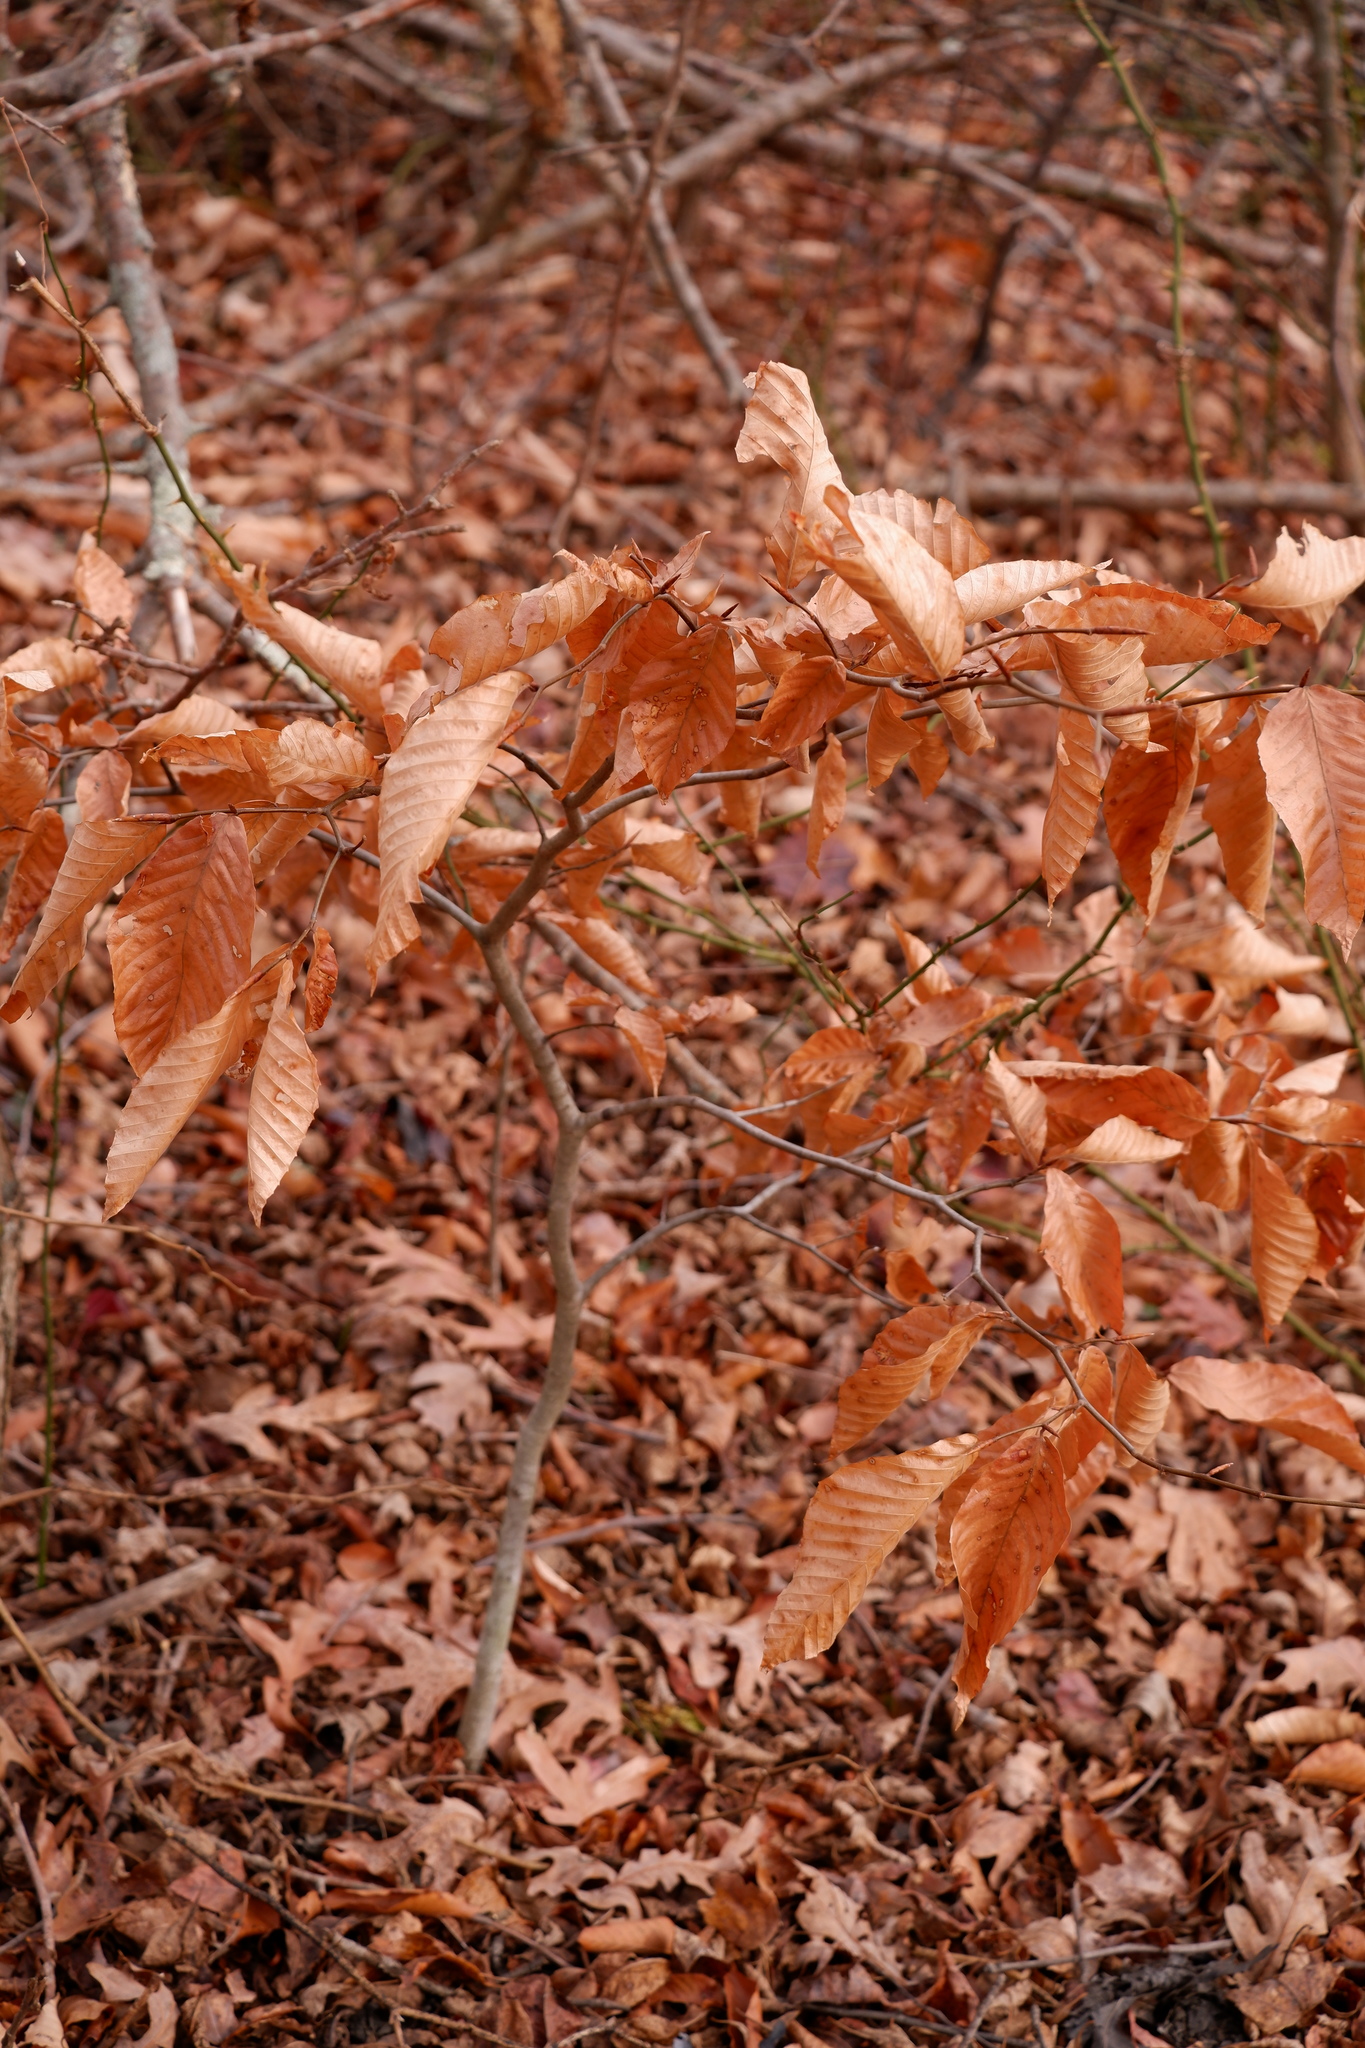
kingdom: Plantae
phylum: Tracheophyta
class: Magnoliopsida
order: Fagales
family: Fagaceae
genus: Fagus
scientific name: Fagus grandifolia
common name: American beech
